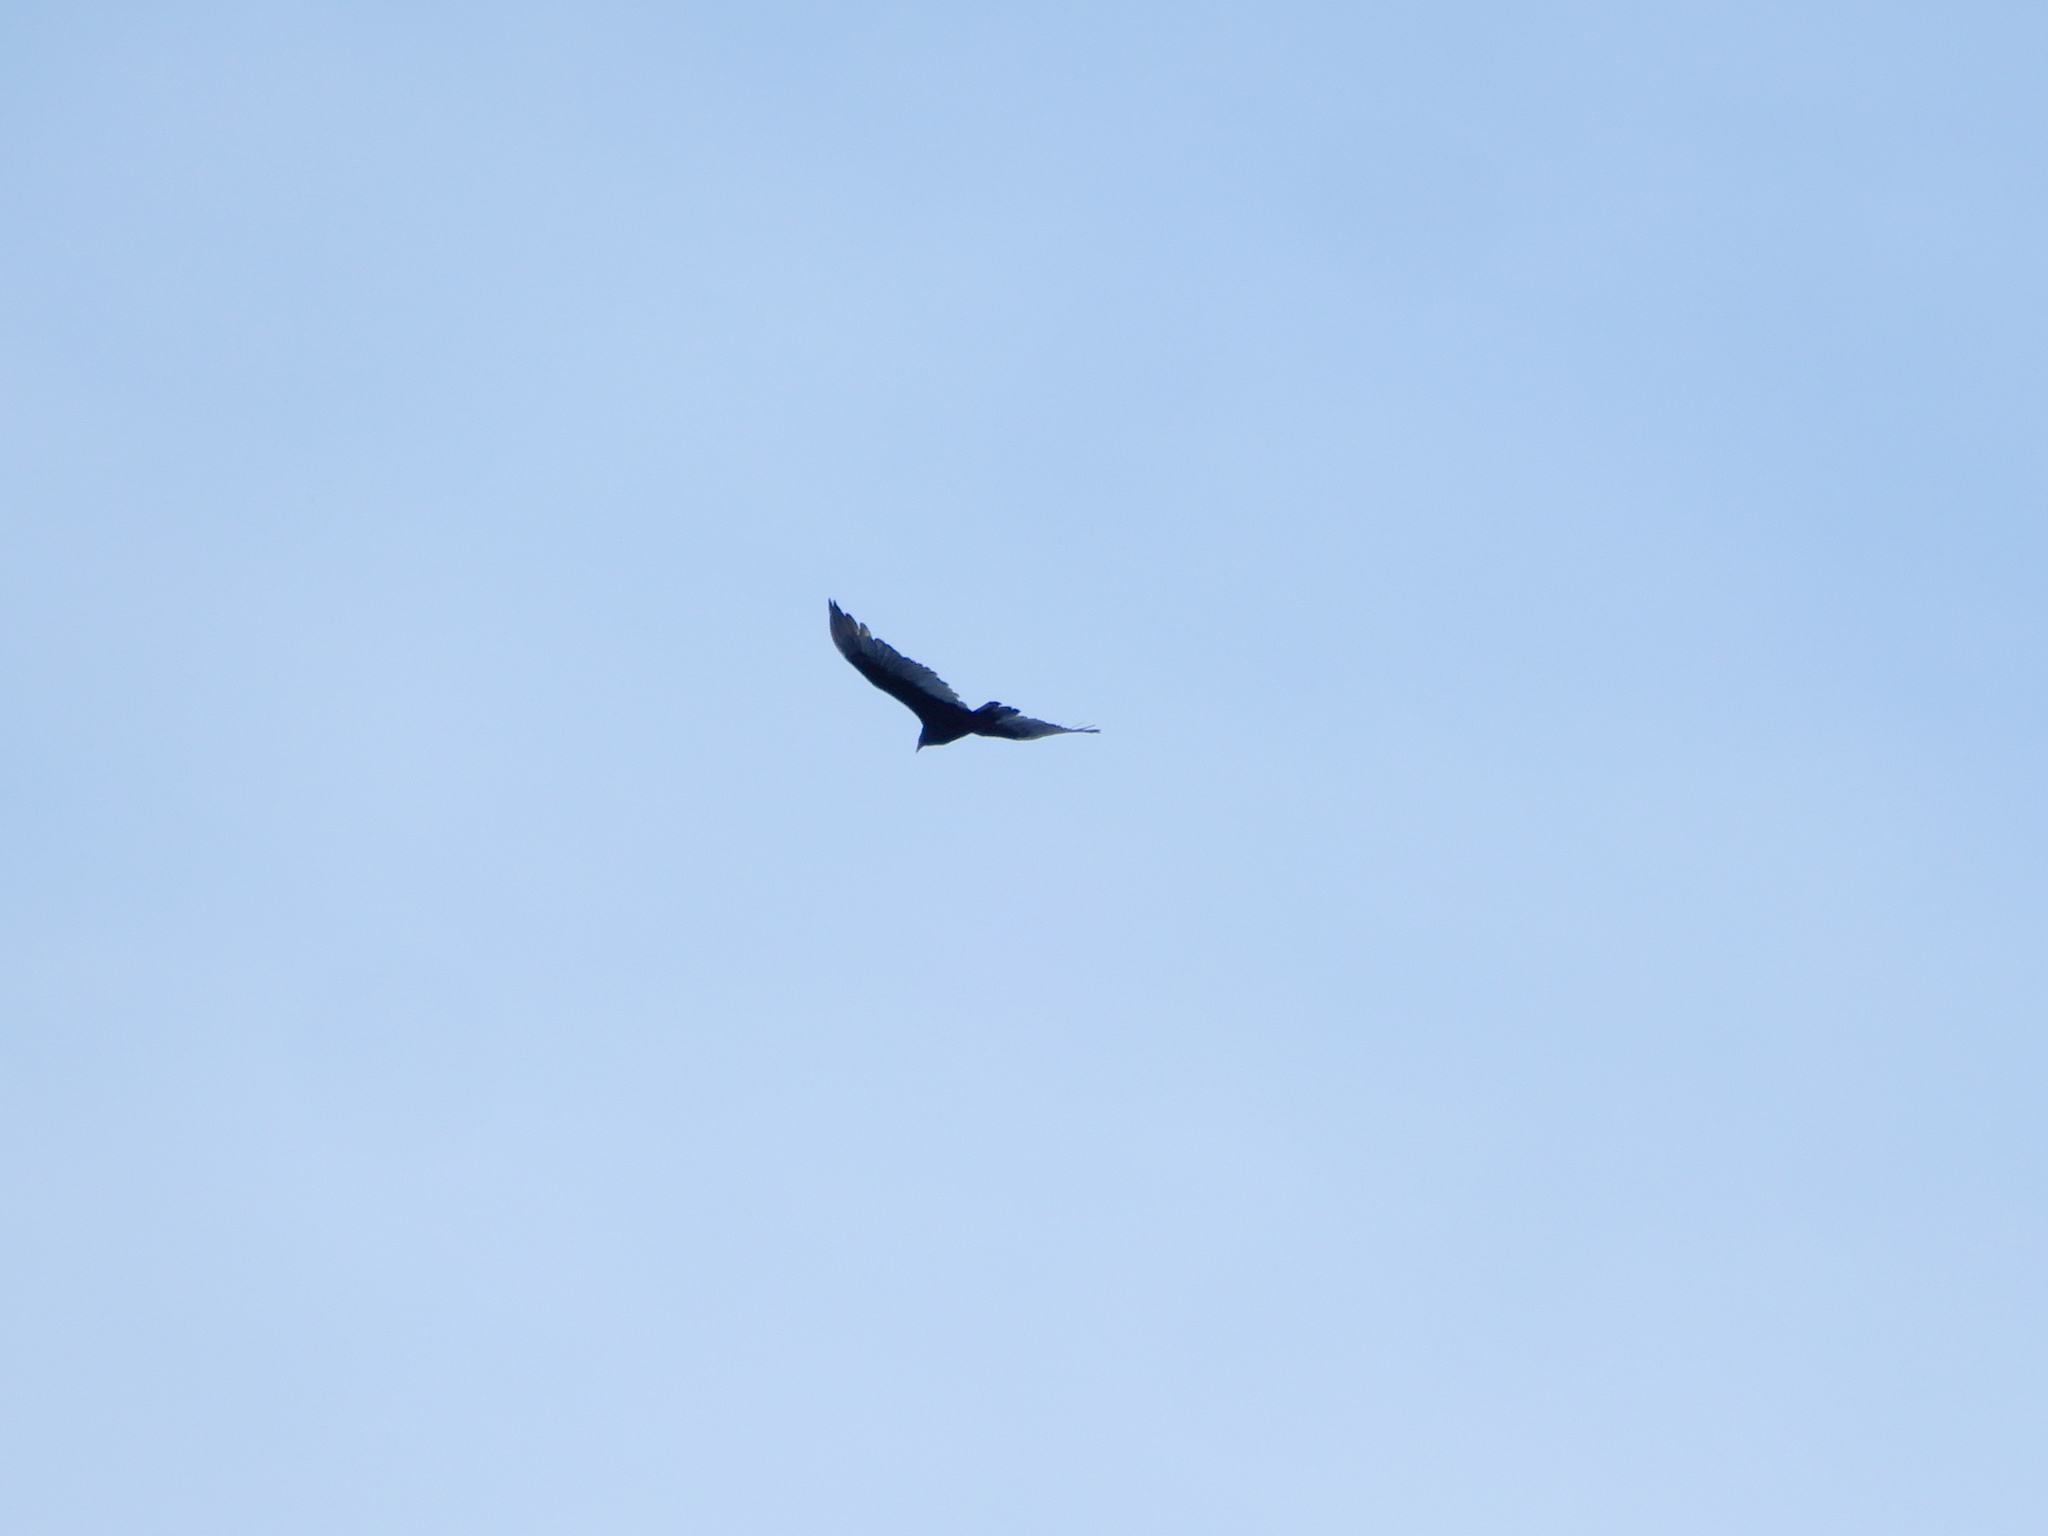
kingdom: Animalia
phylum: Chordata
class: Aves
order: Accipitriformes
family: Cathartidae
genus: Cathartes
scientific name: Cathartes aura
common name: Turkey vulture
